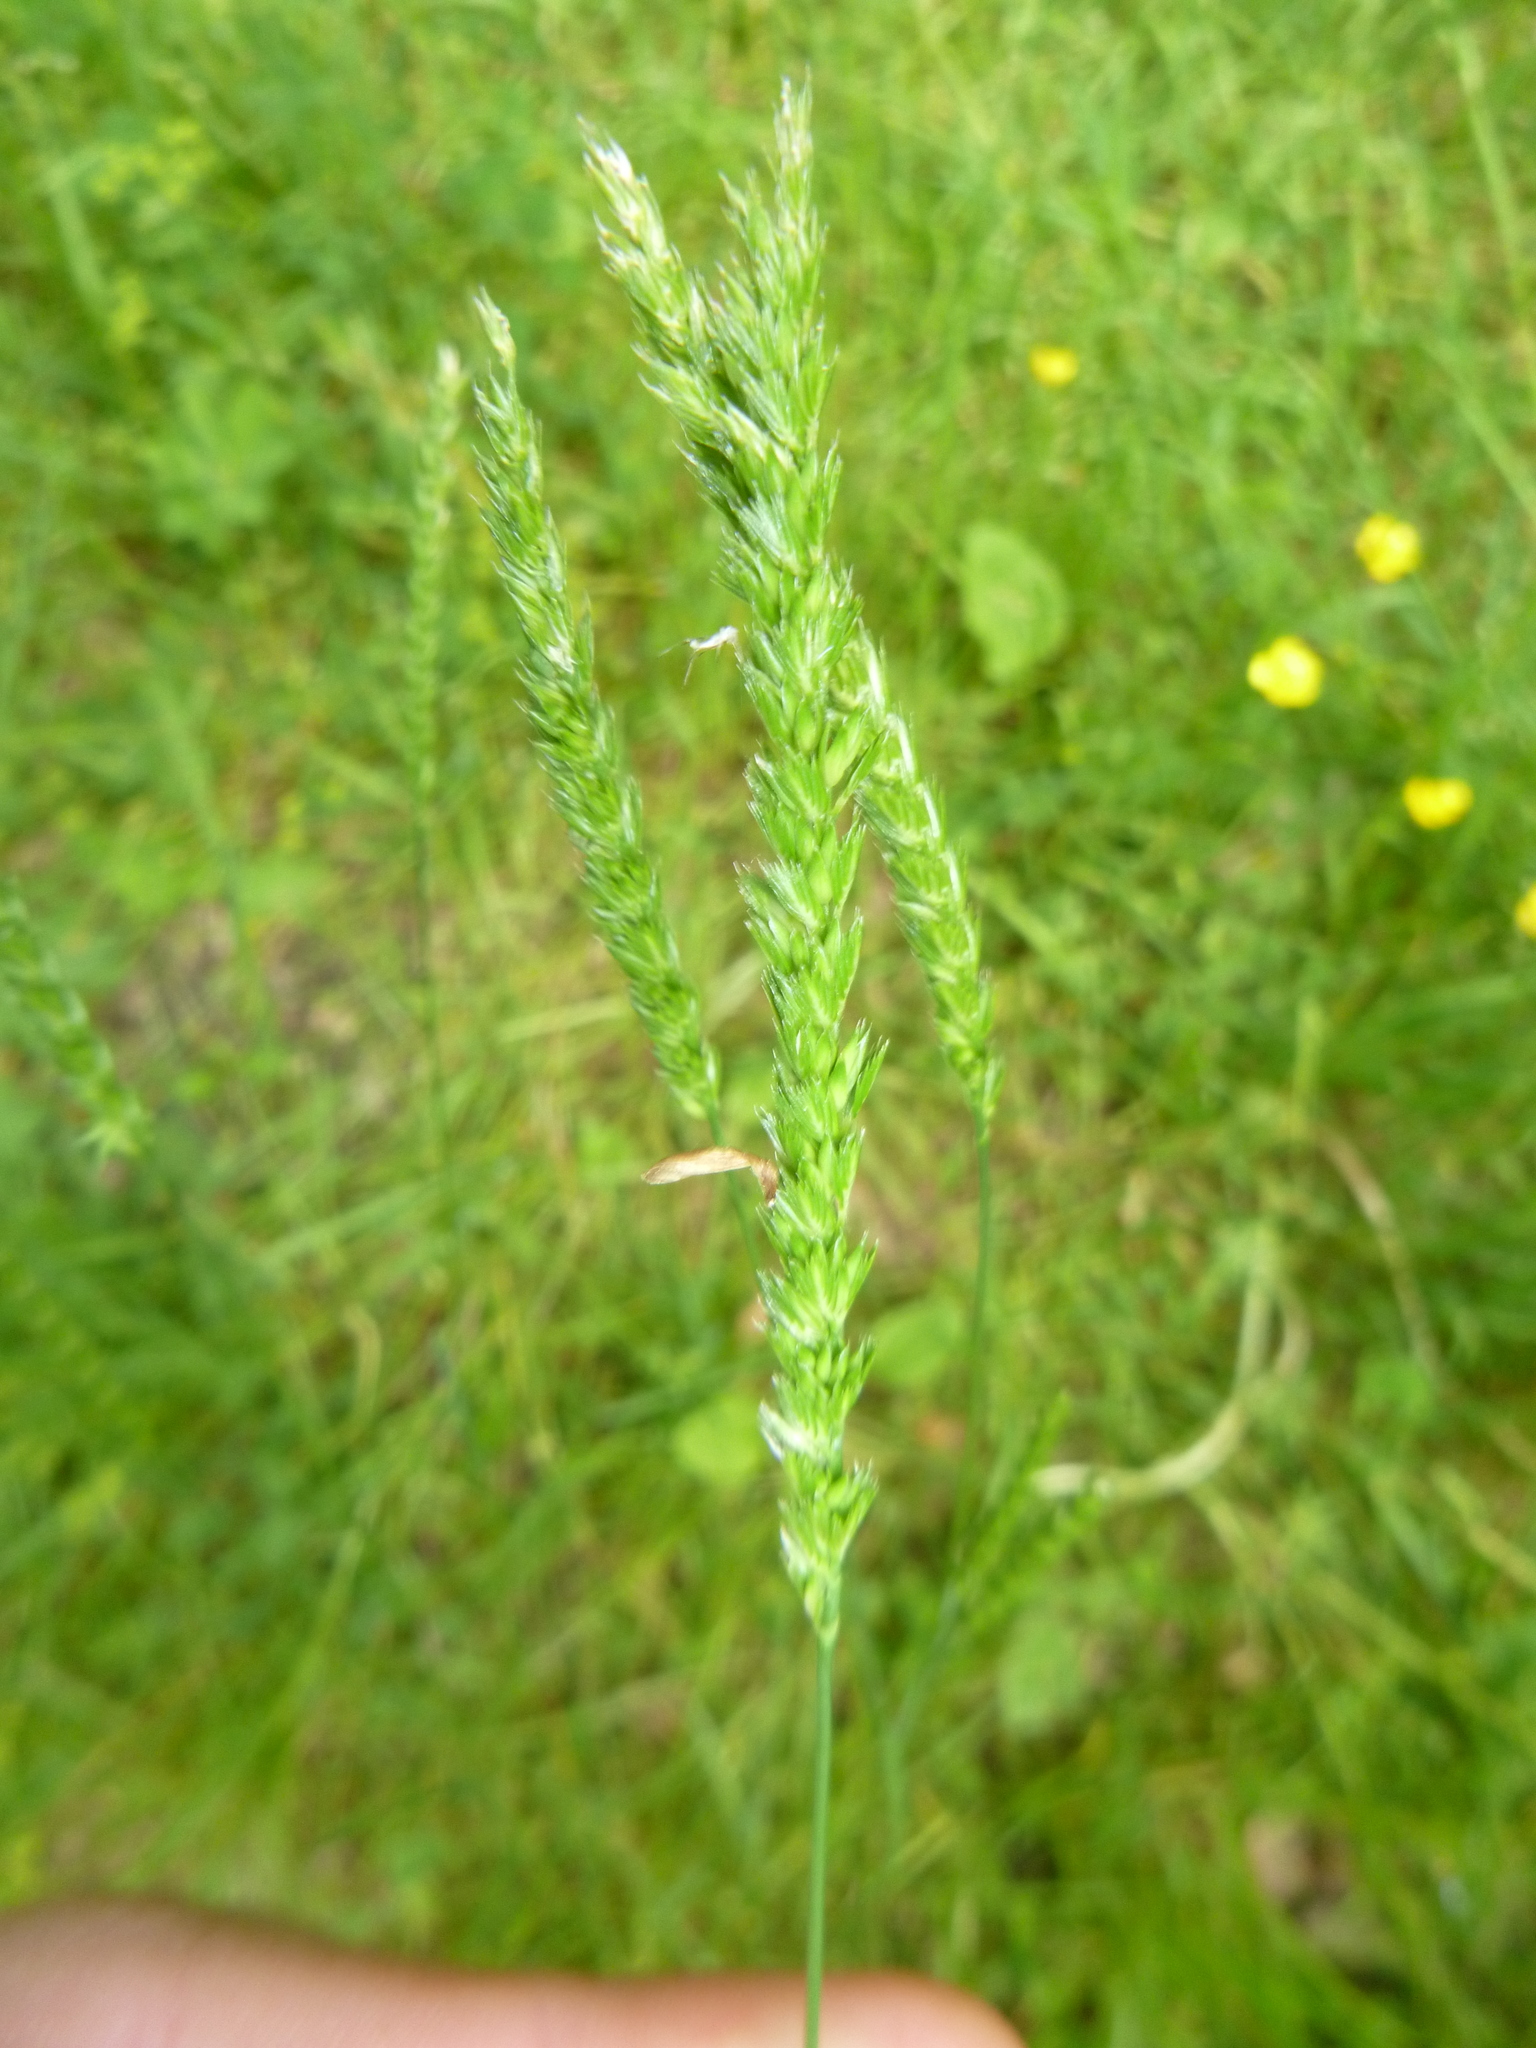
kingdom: Plantae
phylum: Tracheophyta
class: Liliopsida
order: Poales
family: Poaceae
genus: Cynosurus
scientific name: Cynosurus cristatus
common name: Crested dog's-tail
